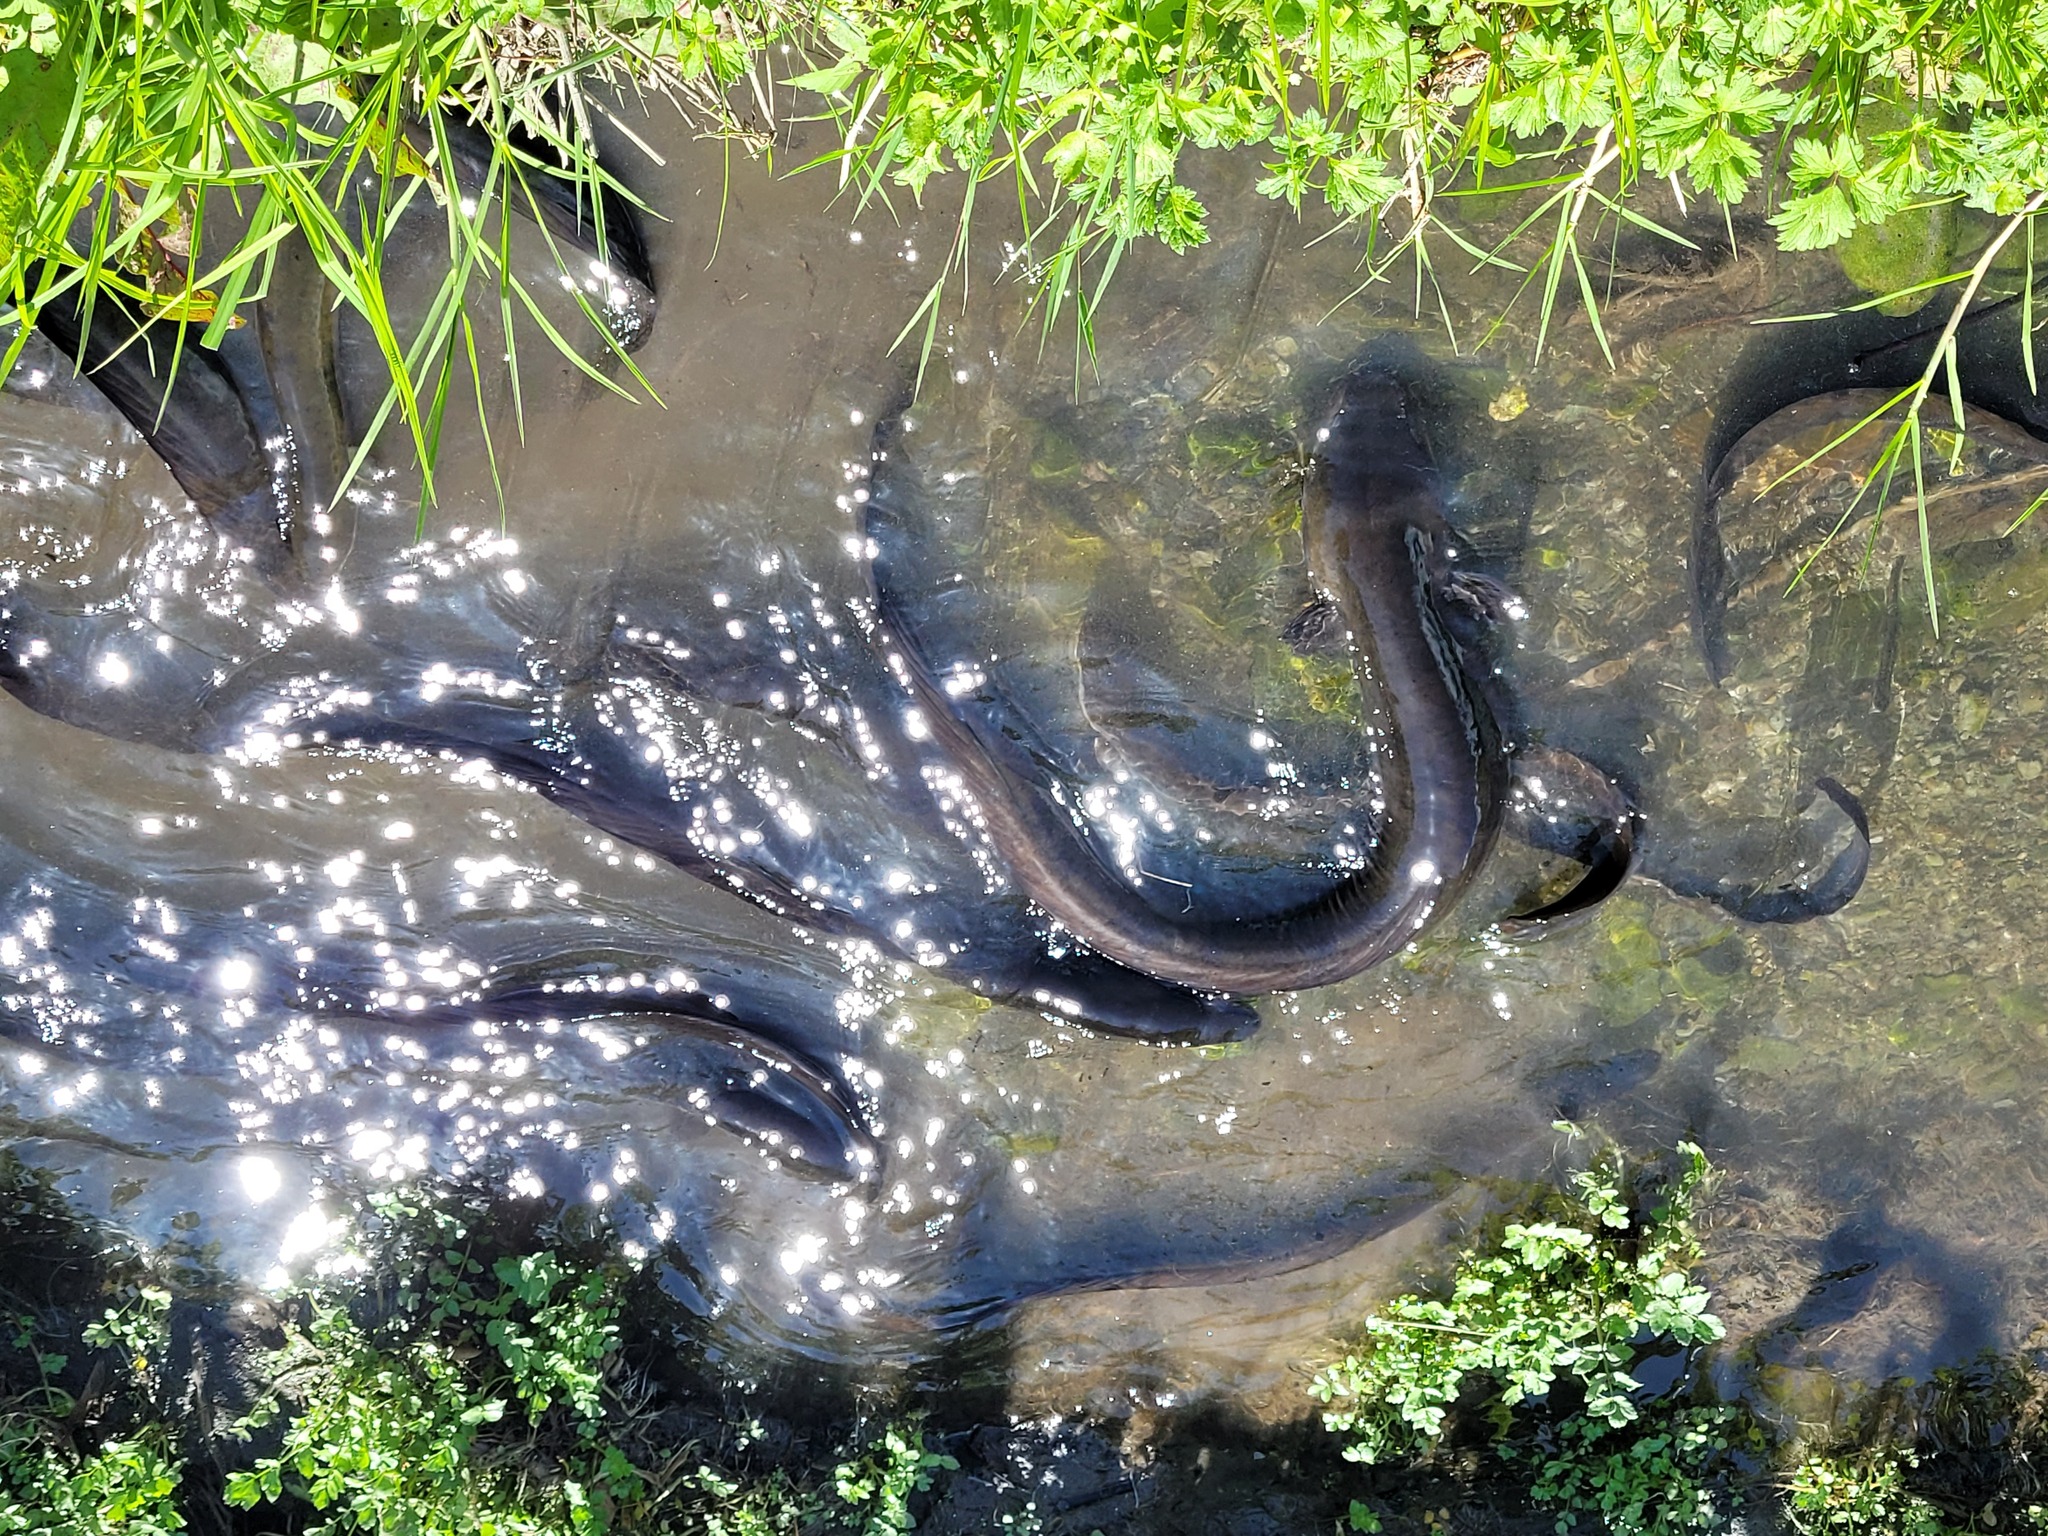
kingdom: Animalia
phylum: Chordata
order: Anguilliformes
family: Anguillidae
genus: Anguilla
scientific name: Anguilla dieffenbachii
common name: New zealand longfin eel
